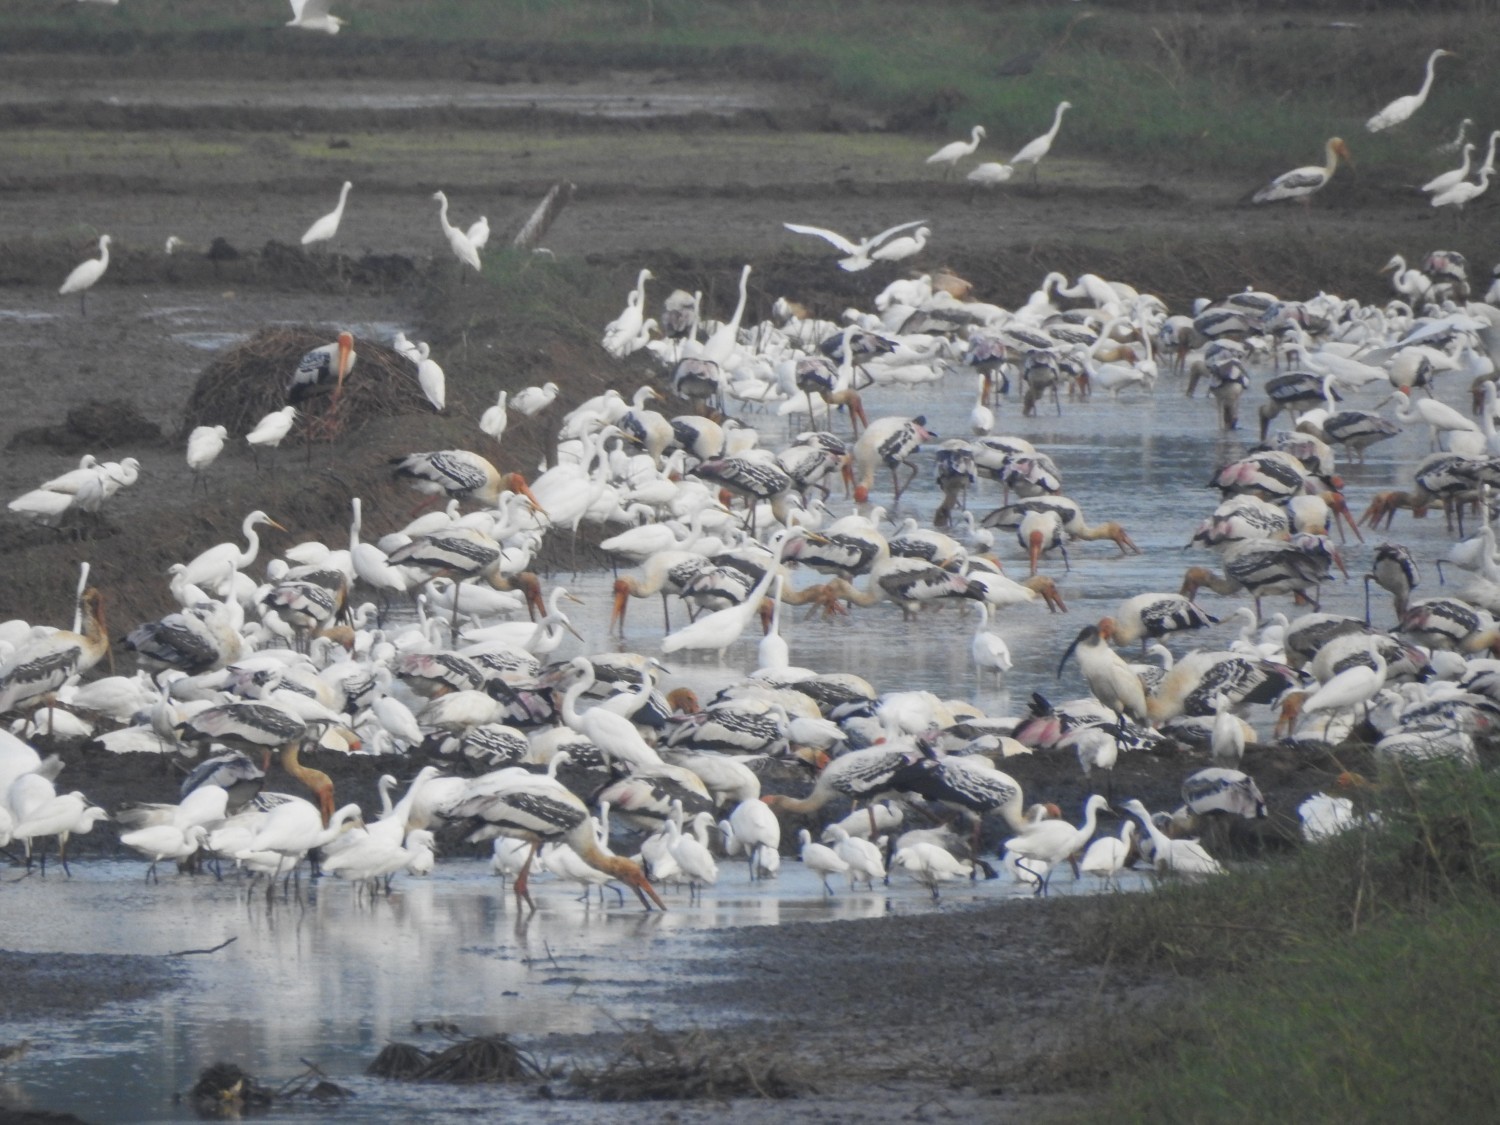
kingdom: Animalia
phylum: Chordata
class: Aves
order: Ciconiiformes
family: Ciconiidae
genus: Mycteria
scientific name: Mycteria leucocephala
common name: Painted stork
